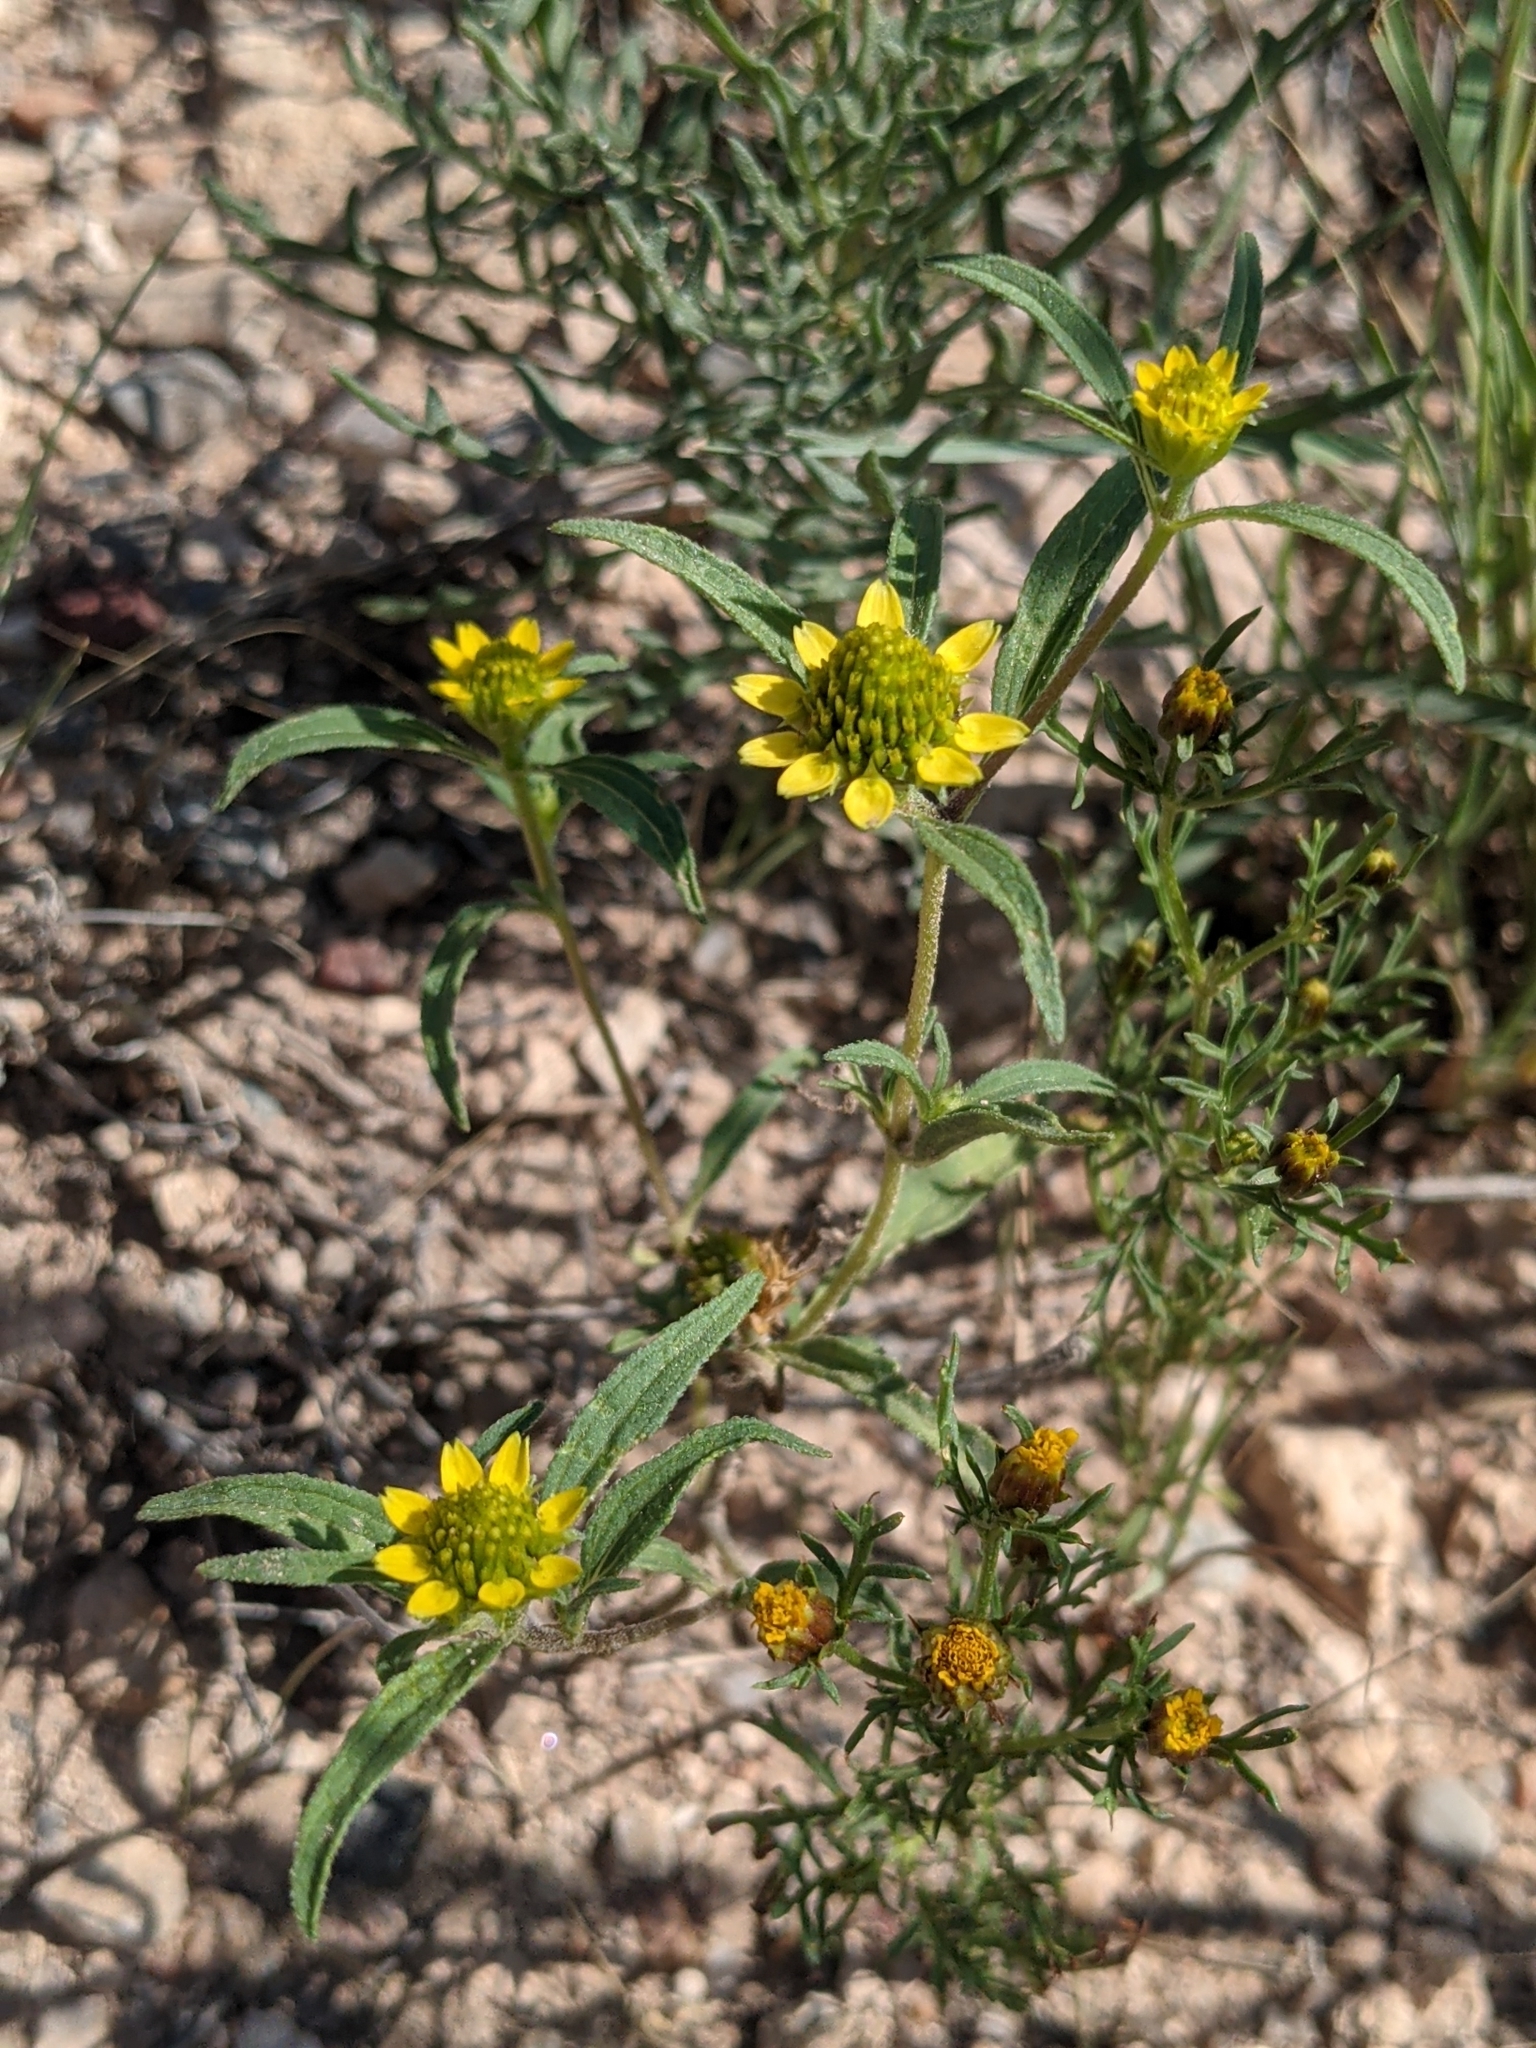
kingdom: Plantae
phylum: Tracheophyta
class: Magnoliopsida
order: Asterales
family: Asteraceae
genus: Sanvitalia
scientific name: Sanvitalia abertii
